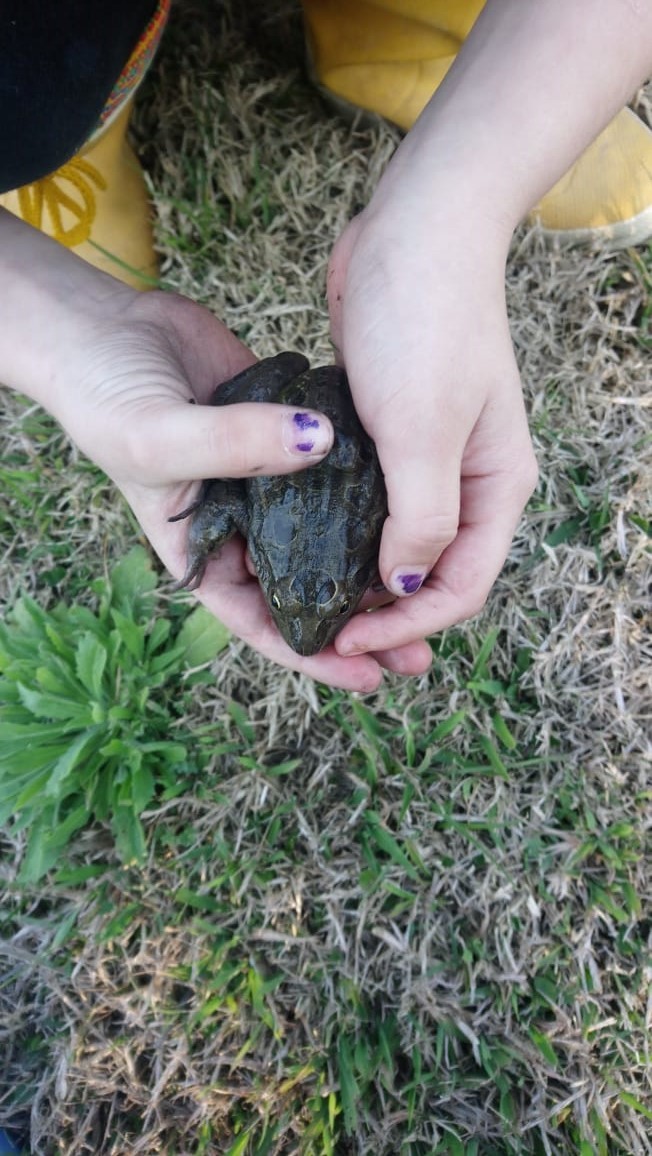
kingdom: Animalia
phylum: Chordata
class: Amphibia
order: Anura
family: Leptodactylidae
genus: Leptodactylus
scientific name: Leptodactylus luctator
